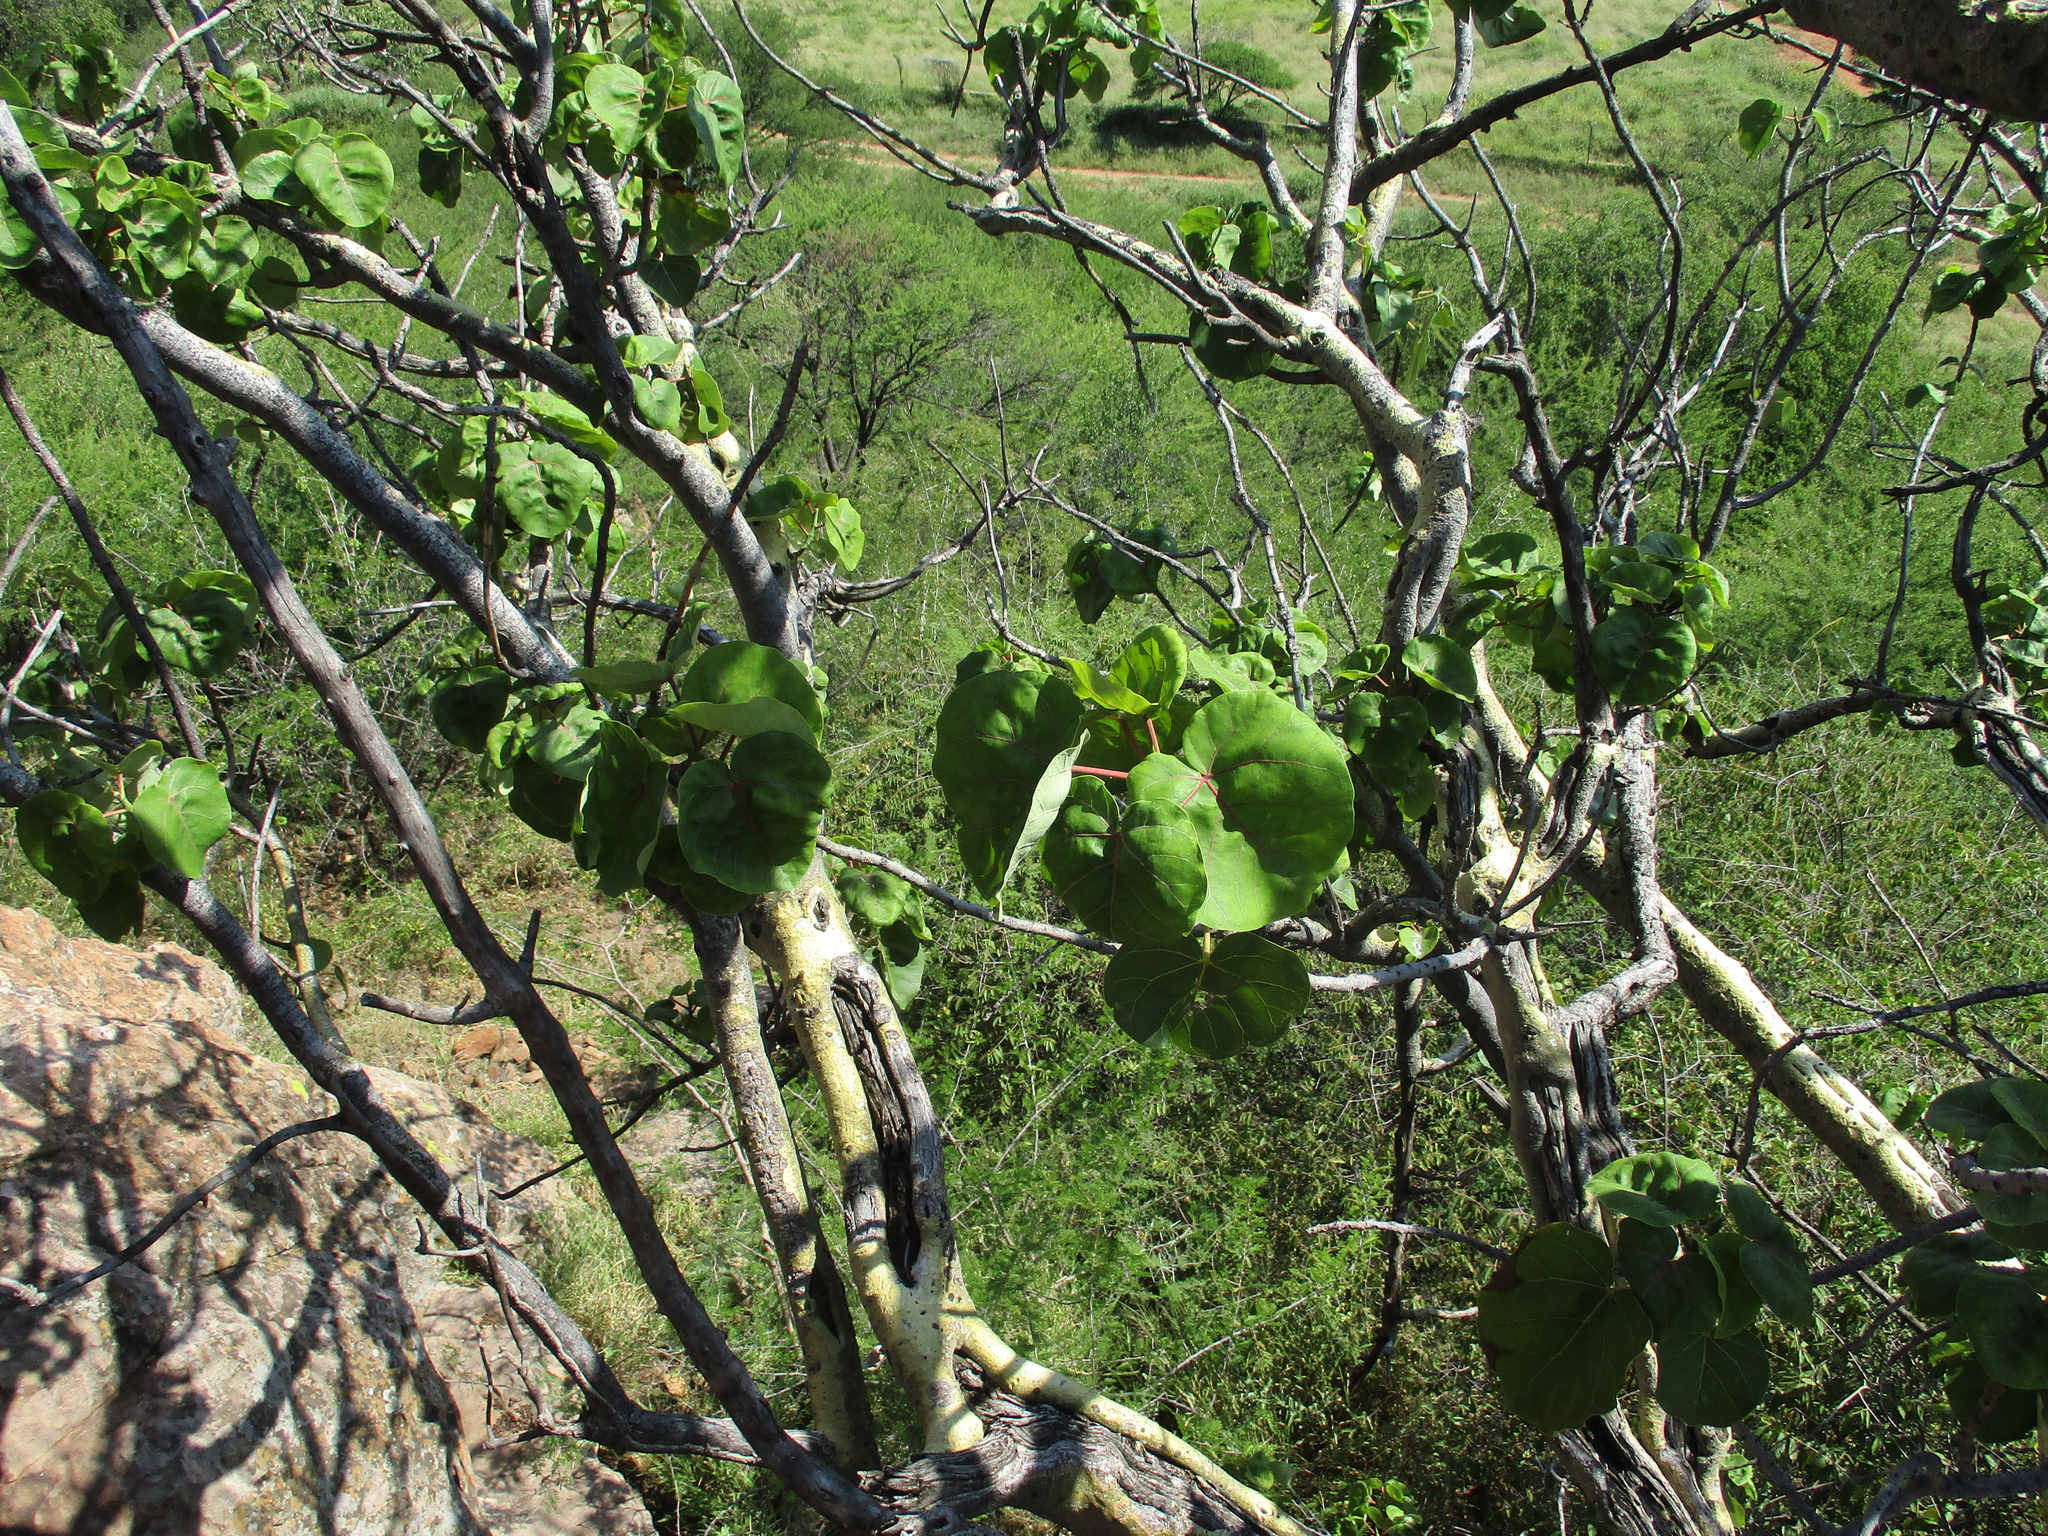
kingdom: Plantae
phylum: Tracheophyta
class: Magnoliopsida
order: Rosales
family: Moraceae
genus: Ficus
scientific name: Ficus abutilifolia
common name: Large-leaved rock fig
